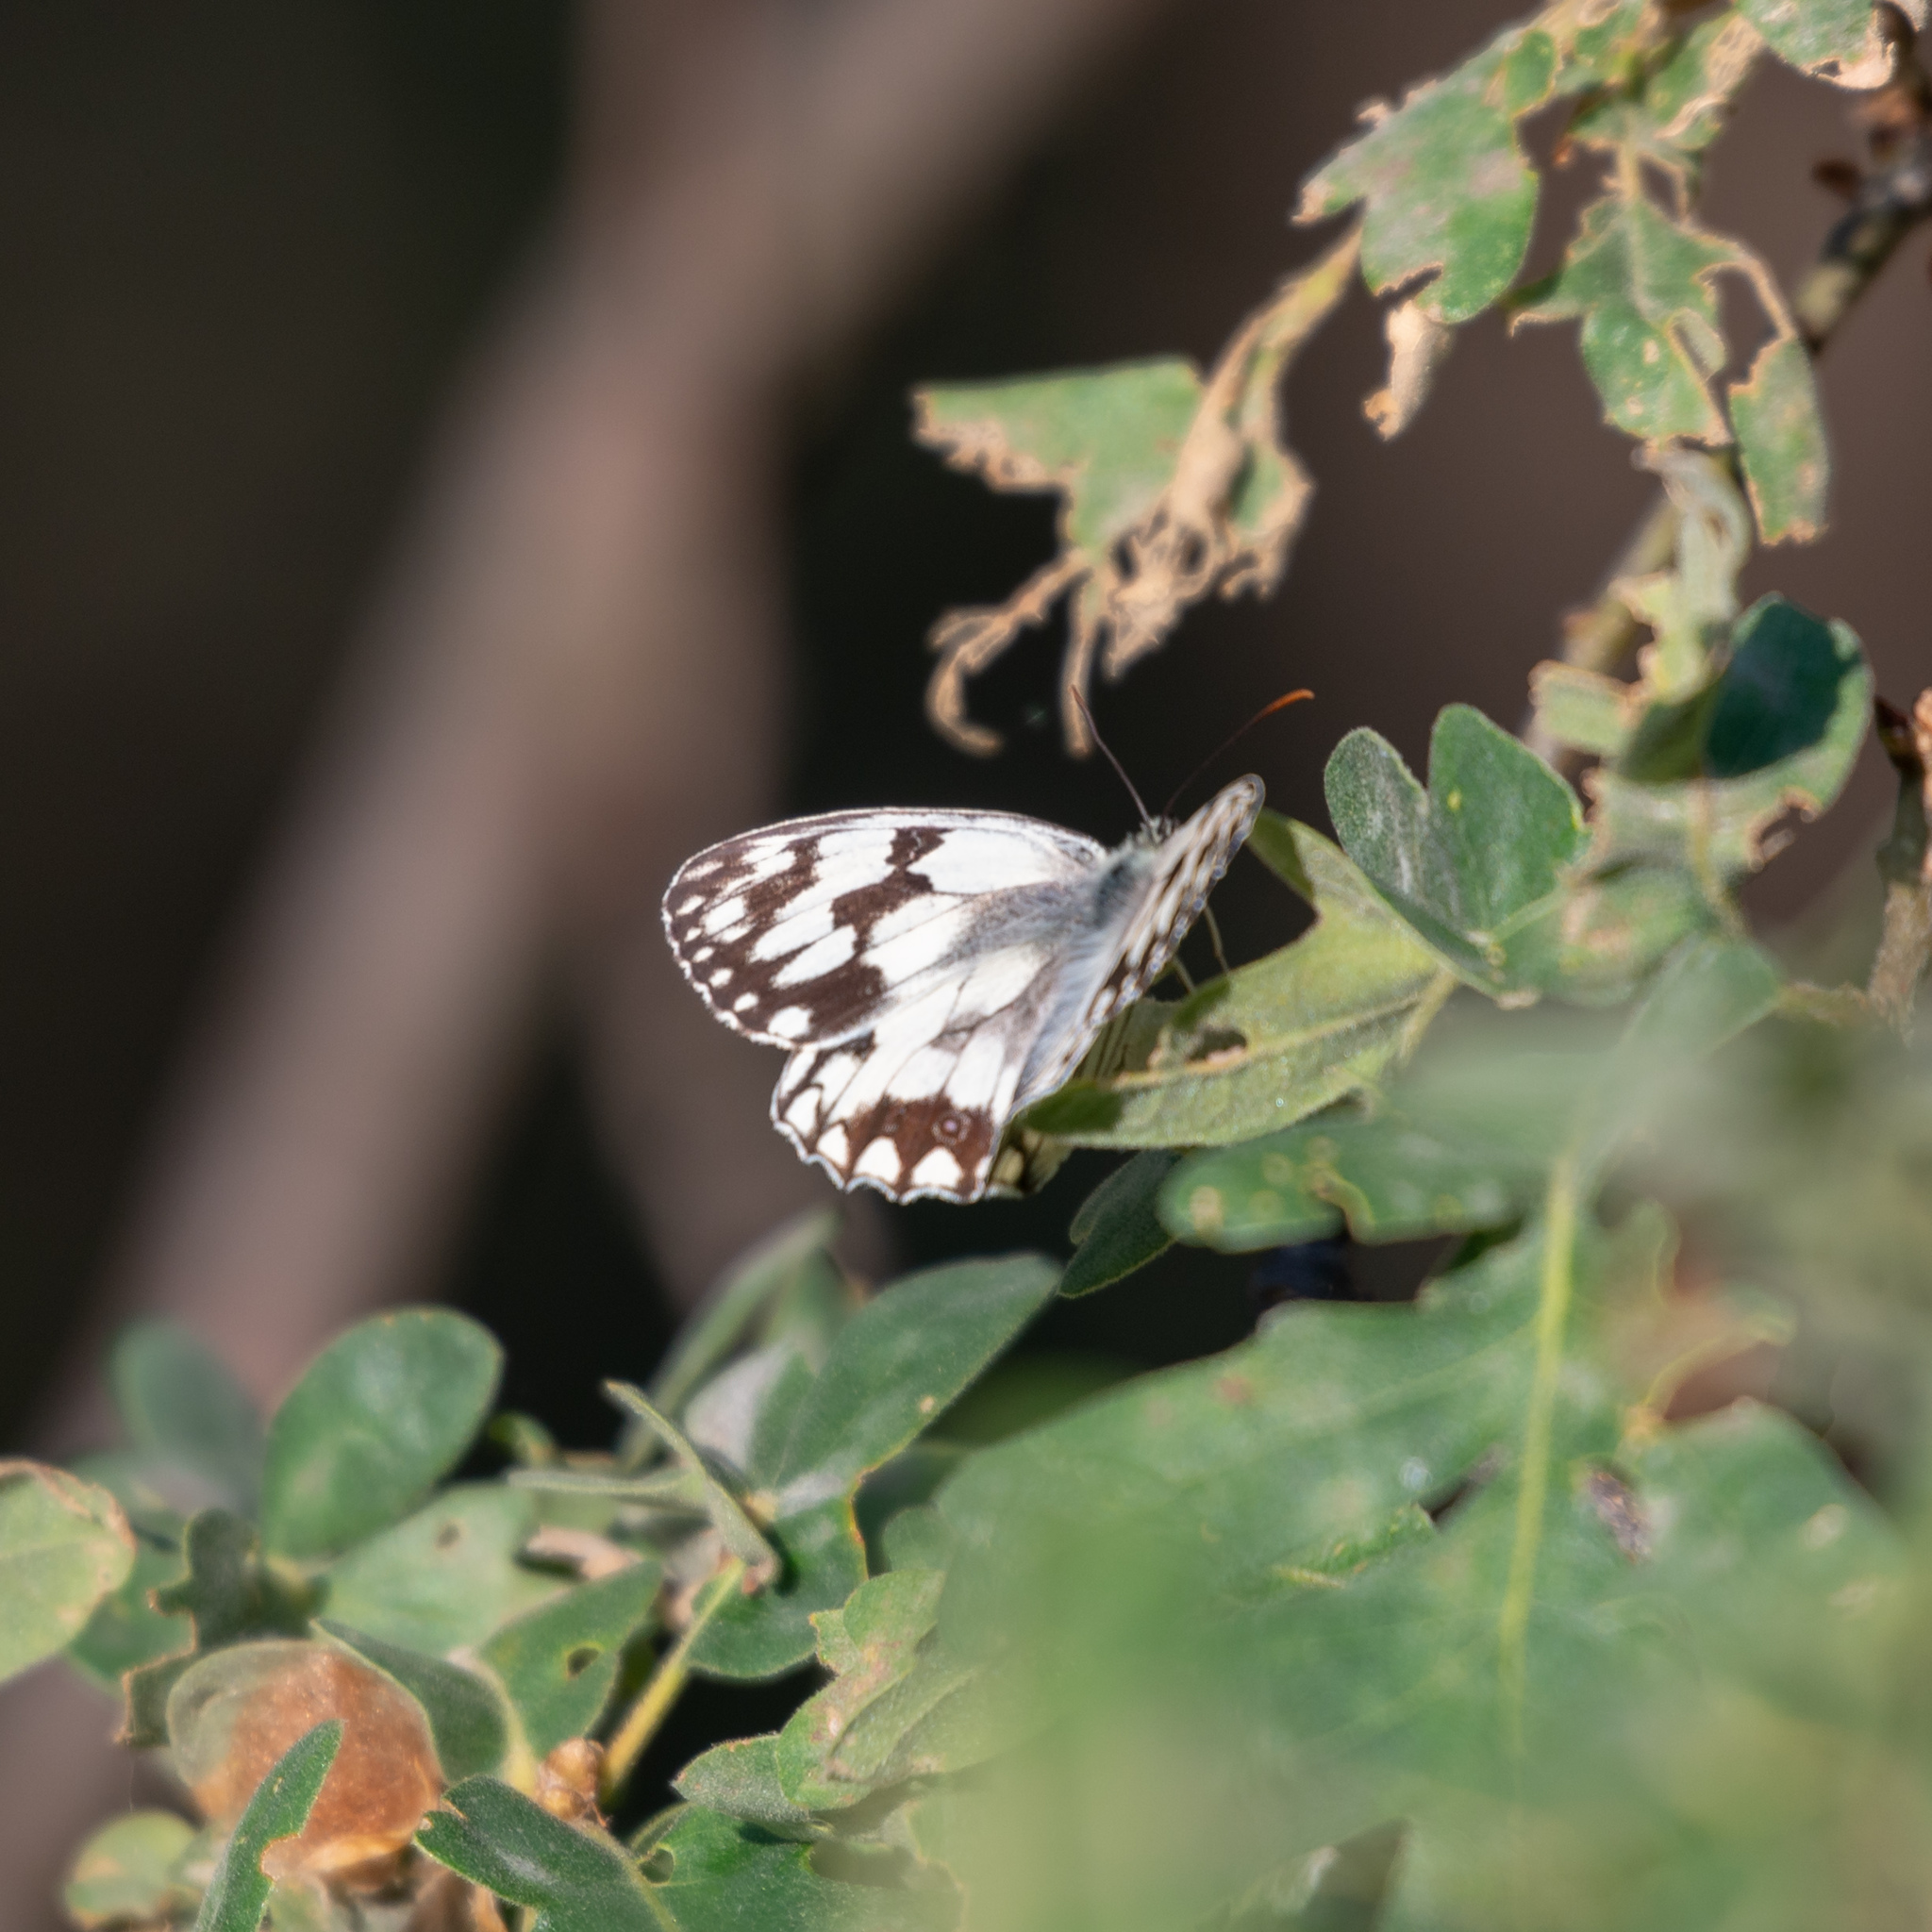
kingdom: Animalia
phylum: Arthropoda
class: Insecta
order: Lepidoptera
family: Nymphalidae
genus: Melanargia
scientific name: Melanargia lachesis
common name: Iberian marbled white
